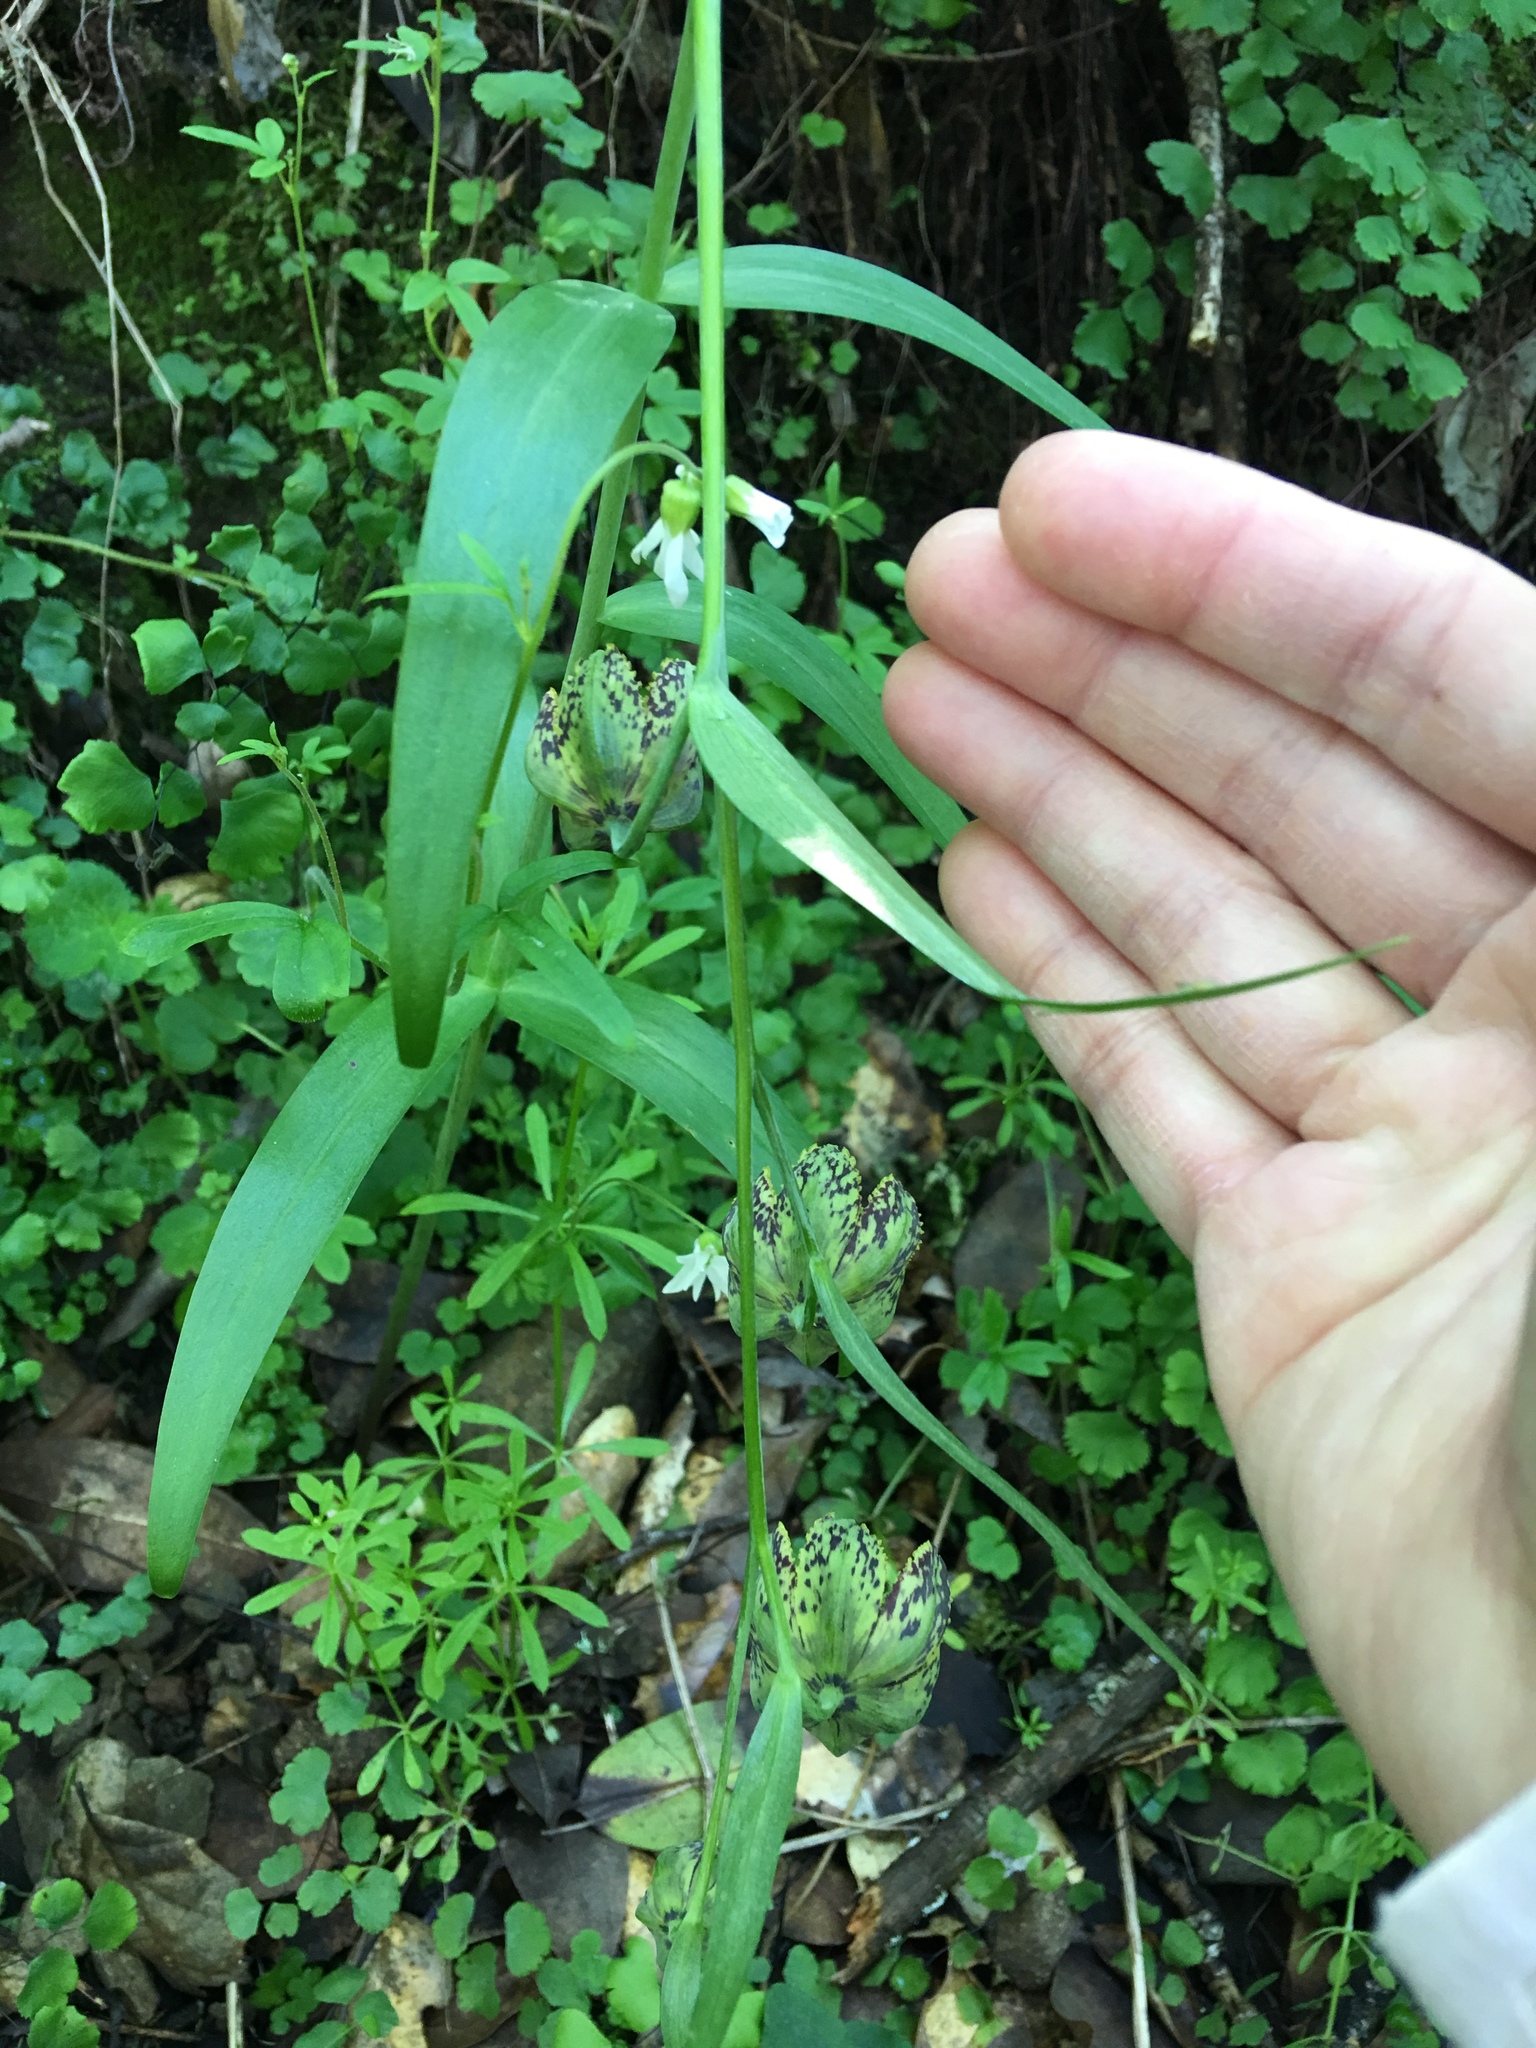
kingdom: Plantae
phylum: Tracheophyta
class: Liliopsida
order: Liliales
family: Liliaceae
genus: Fritillaria
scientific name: Fritillaria affinis
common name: Ojai fritillary
